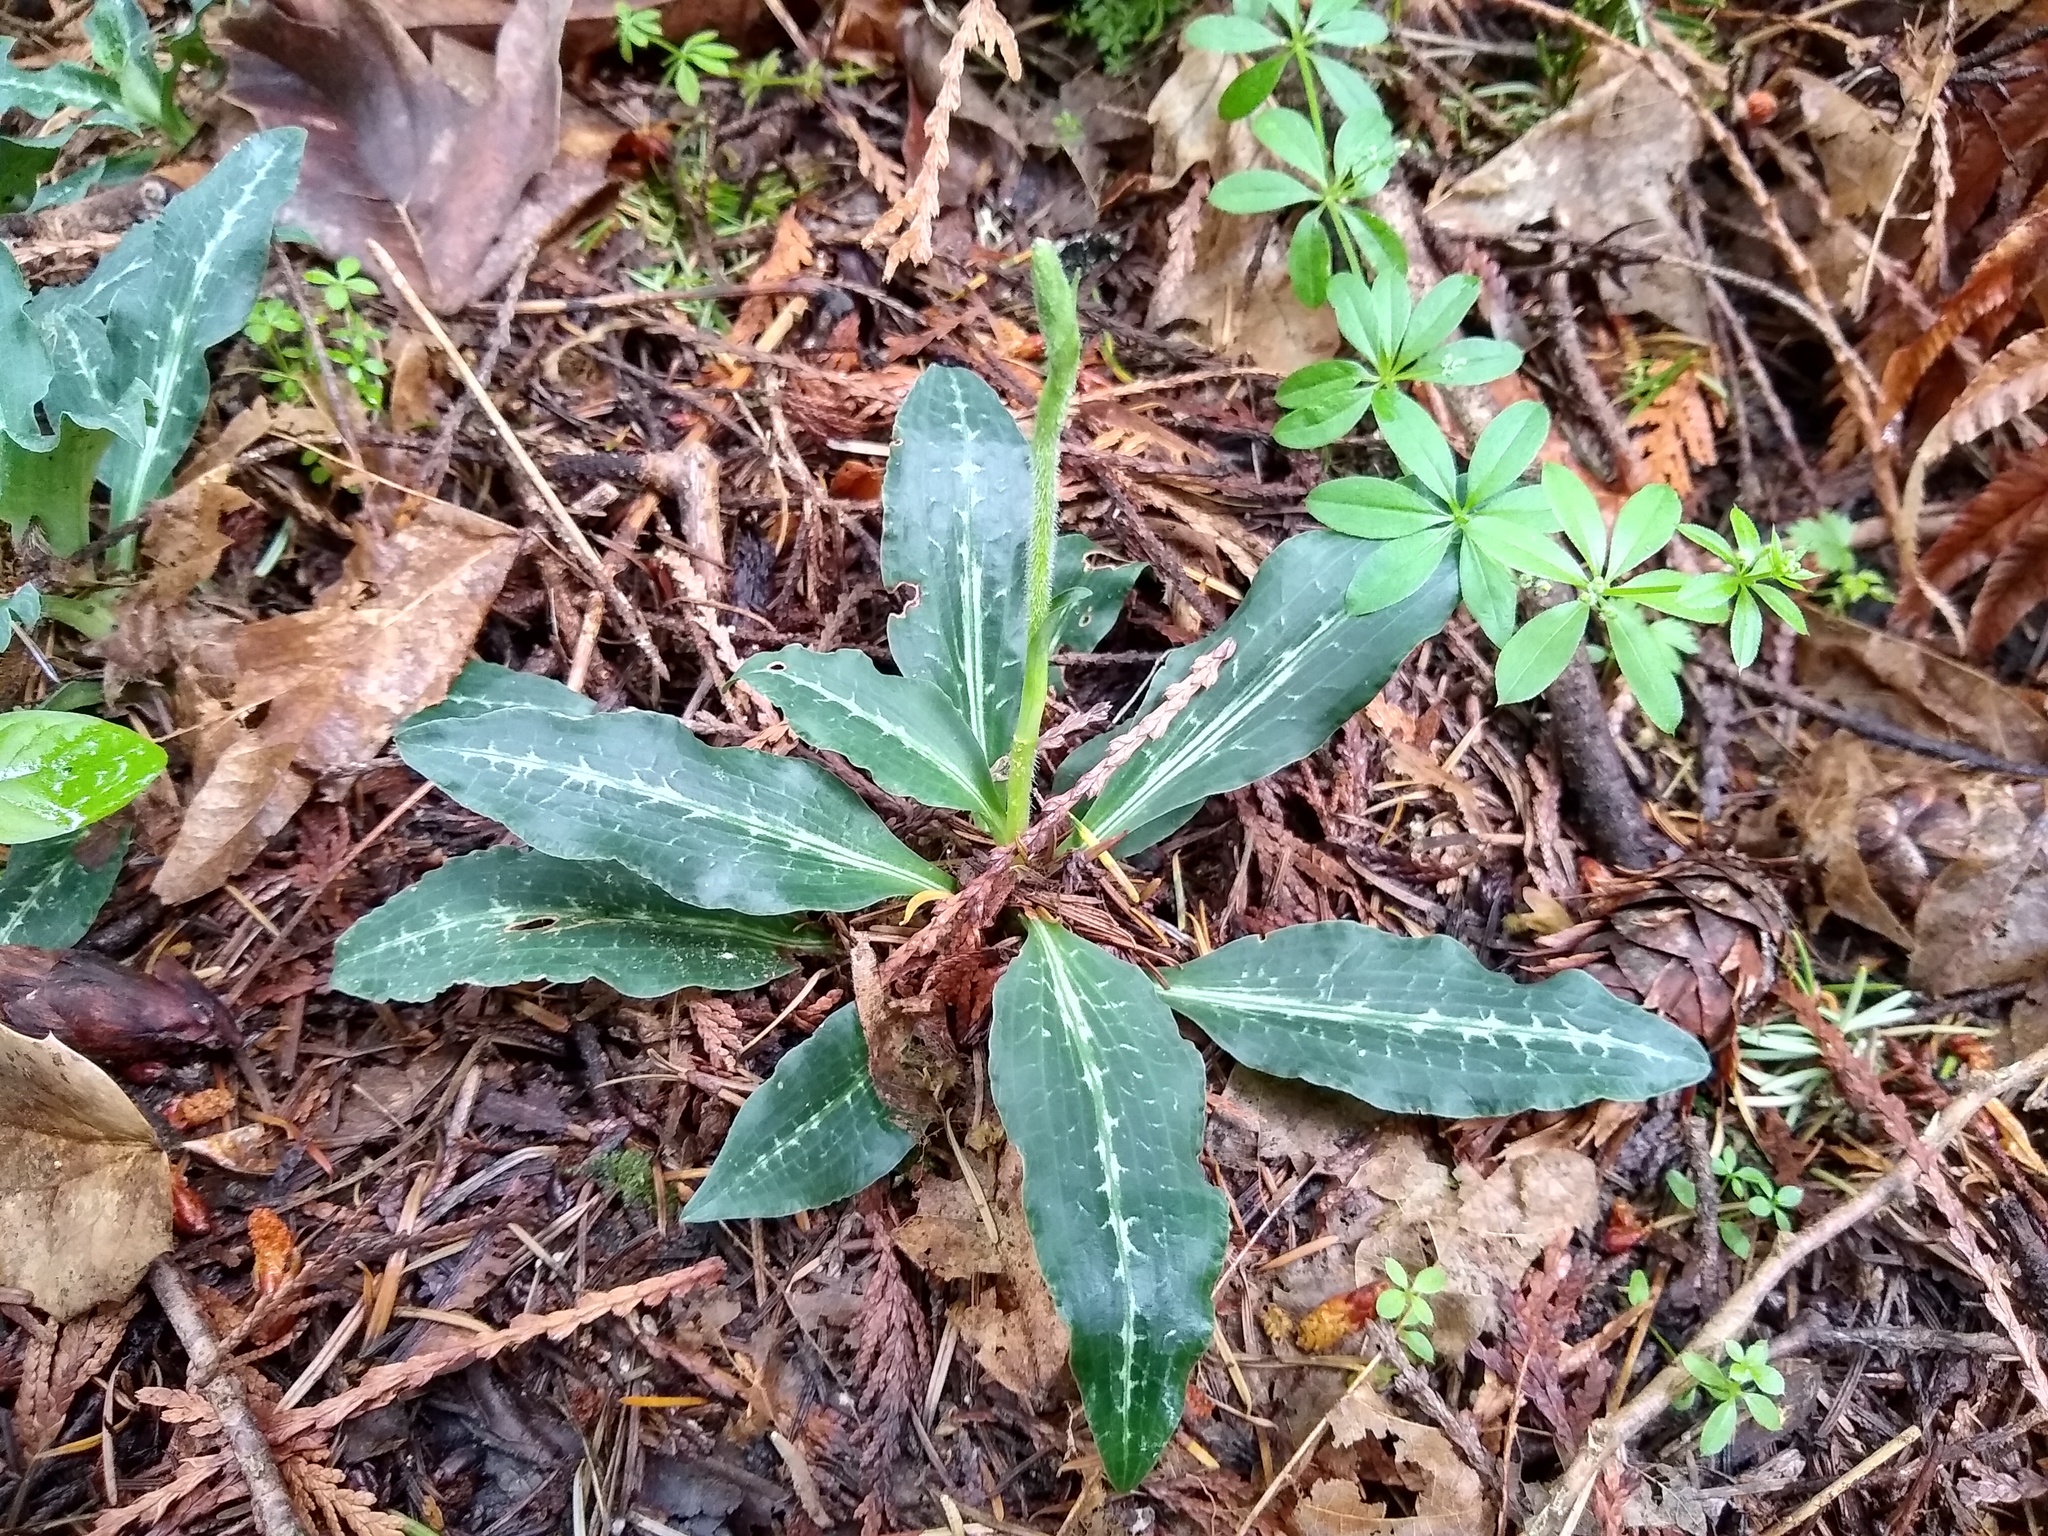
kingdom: Plantae
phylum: Tracheophyta
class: Liliopsida
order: Asparagales
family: Orchidaceae
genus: Goodyera
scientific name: Goodyera oblongifolia
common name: Giant rattlesnake-plantain
